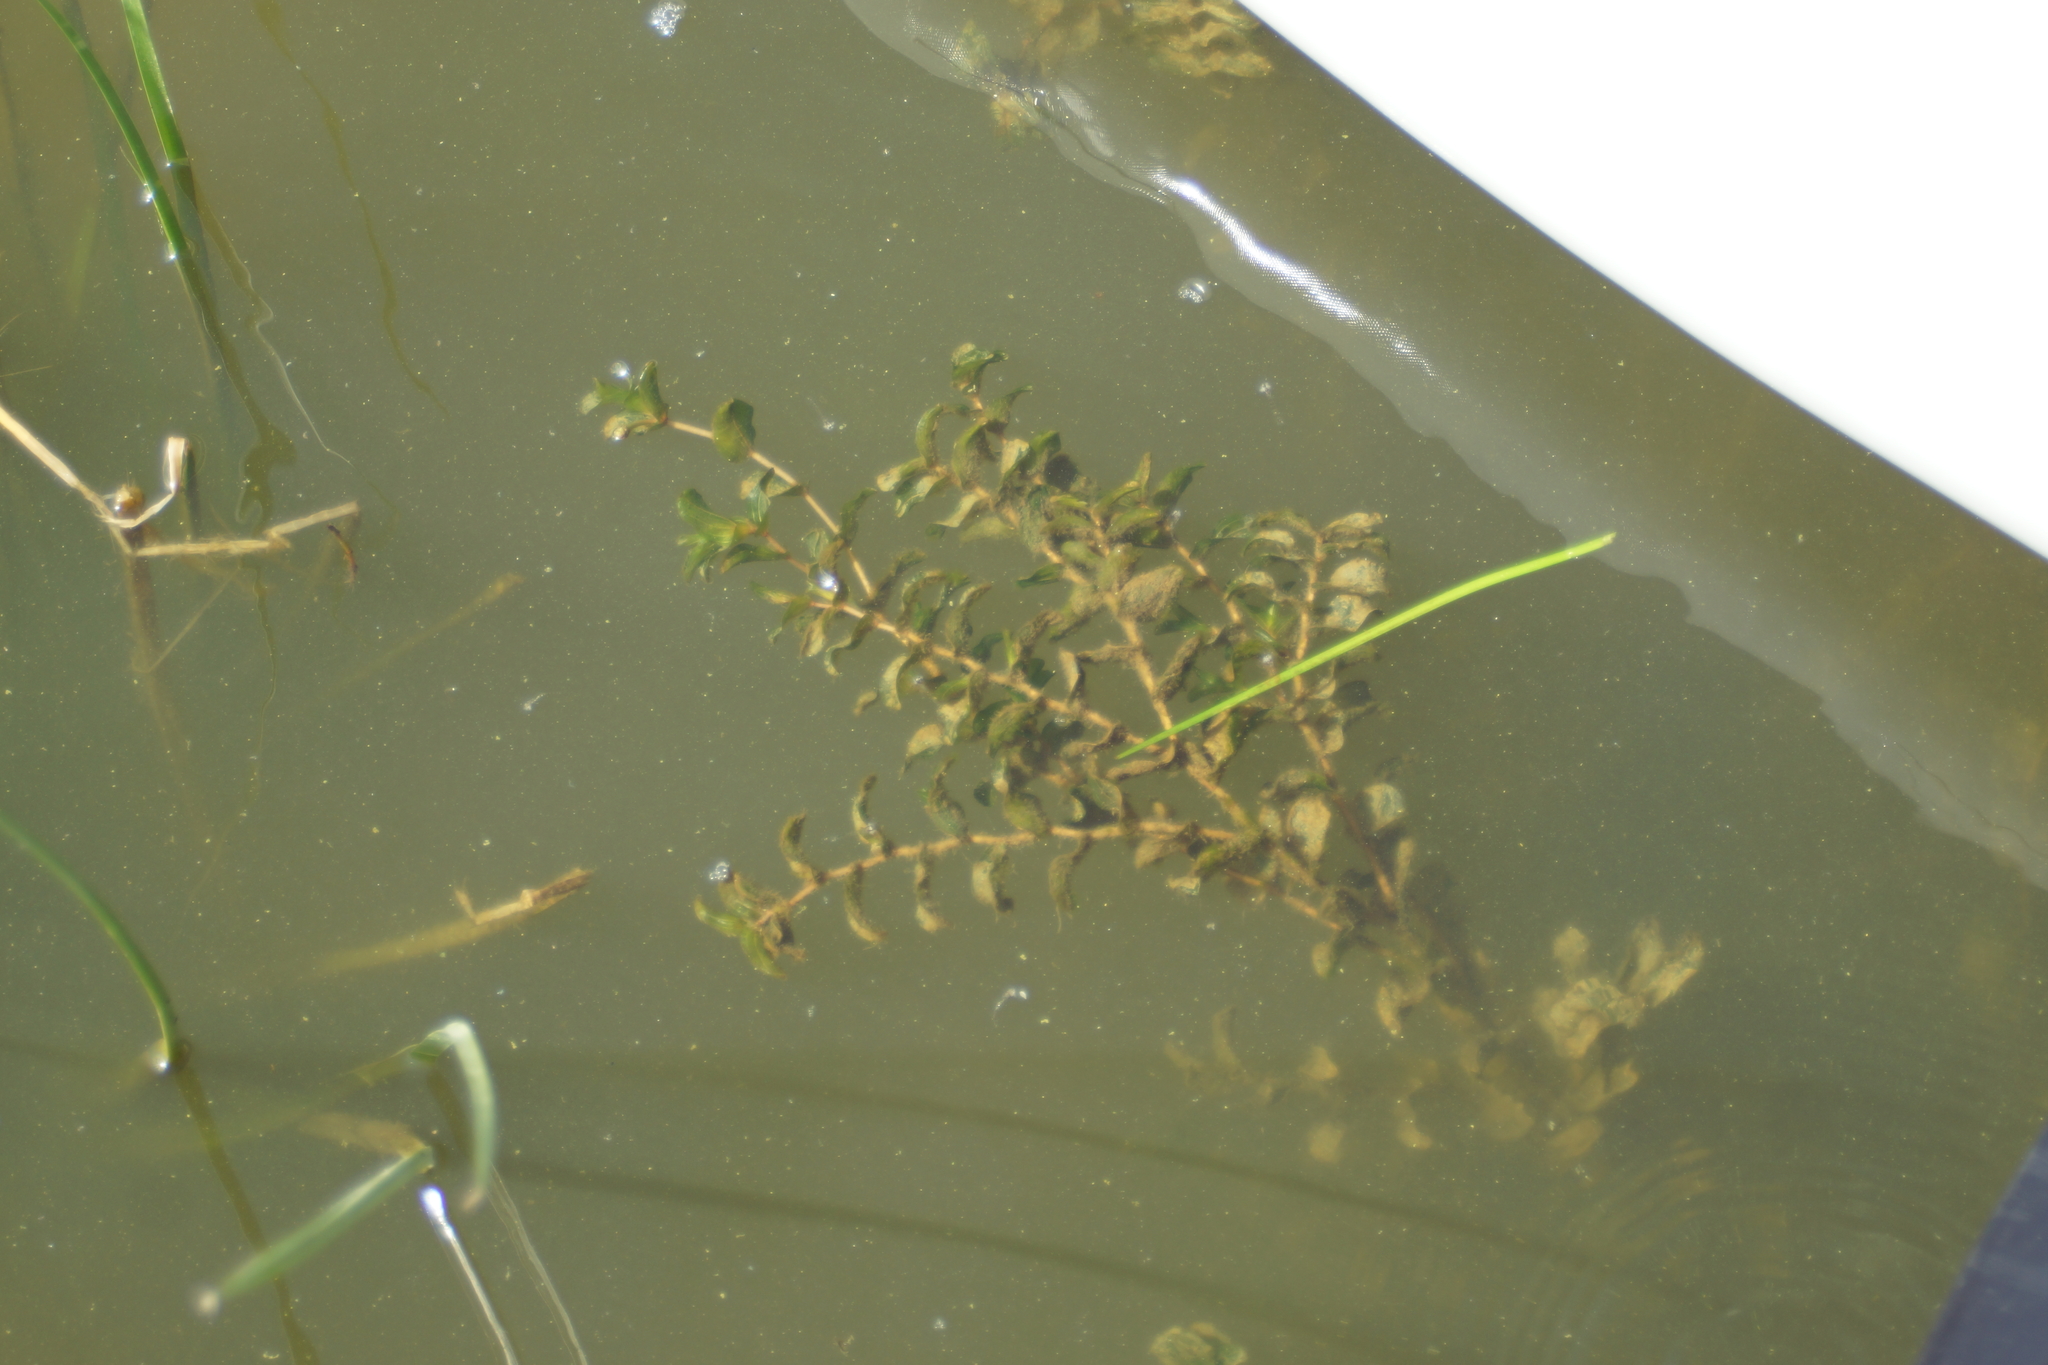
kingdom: Plantae
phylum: Tracheophyta
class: Liliopsida
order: Alismatales
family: Potamogetonaceae
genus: Potamogeton
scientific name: Potamogeton perfoliatus
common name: Perfoliate pondweed
